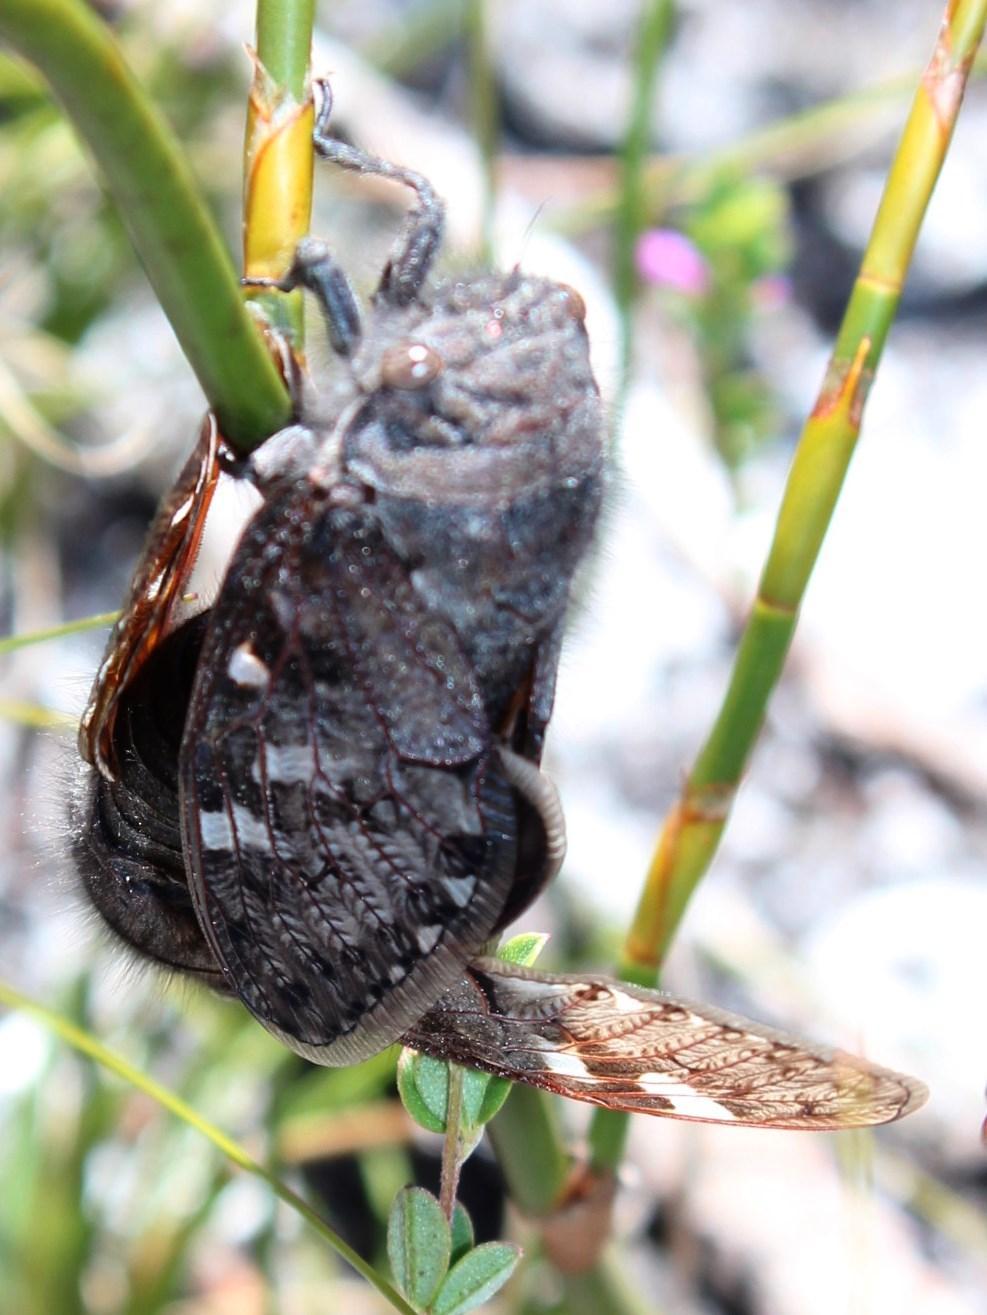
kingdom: Animalia
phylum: Arthropoda
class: Insecta
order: Hemiptera
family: Cicadidae
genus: Capcicada
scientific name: Capcicada absimilis
